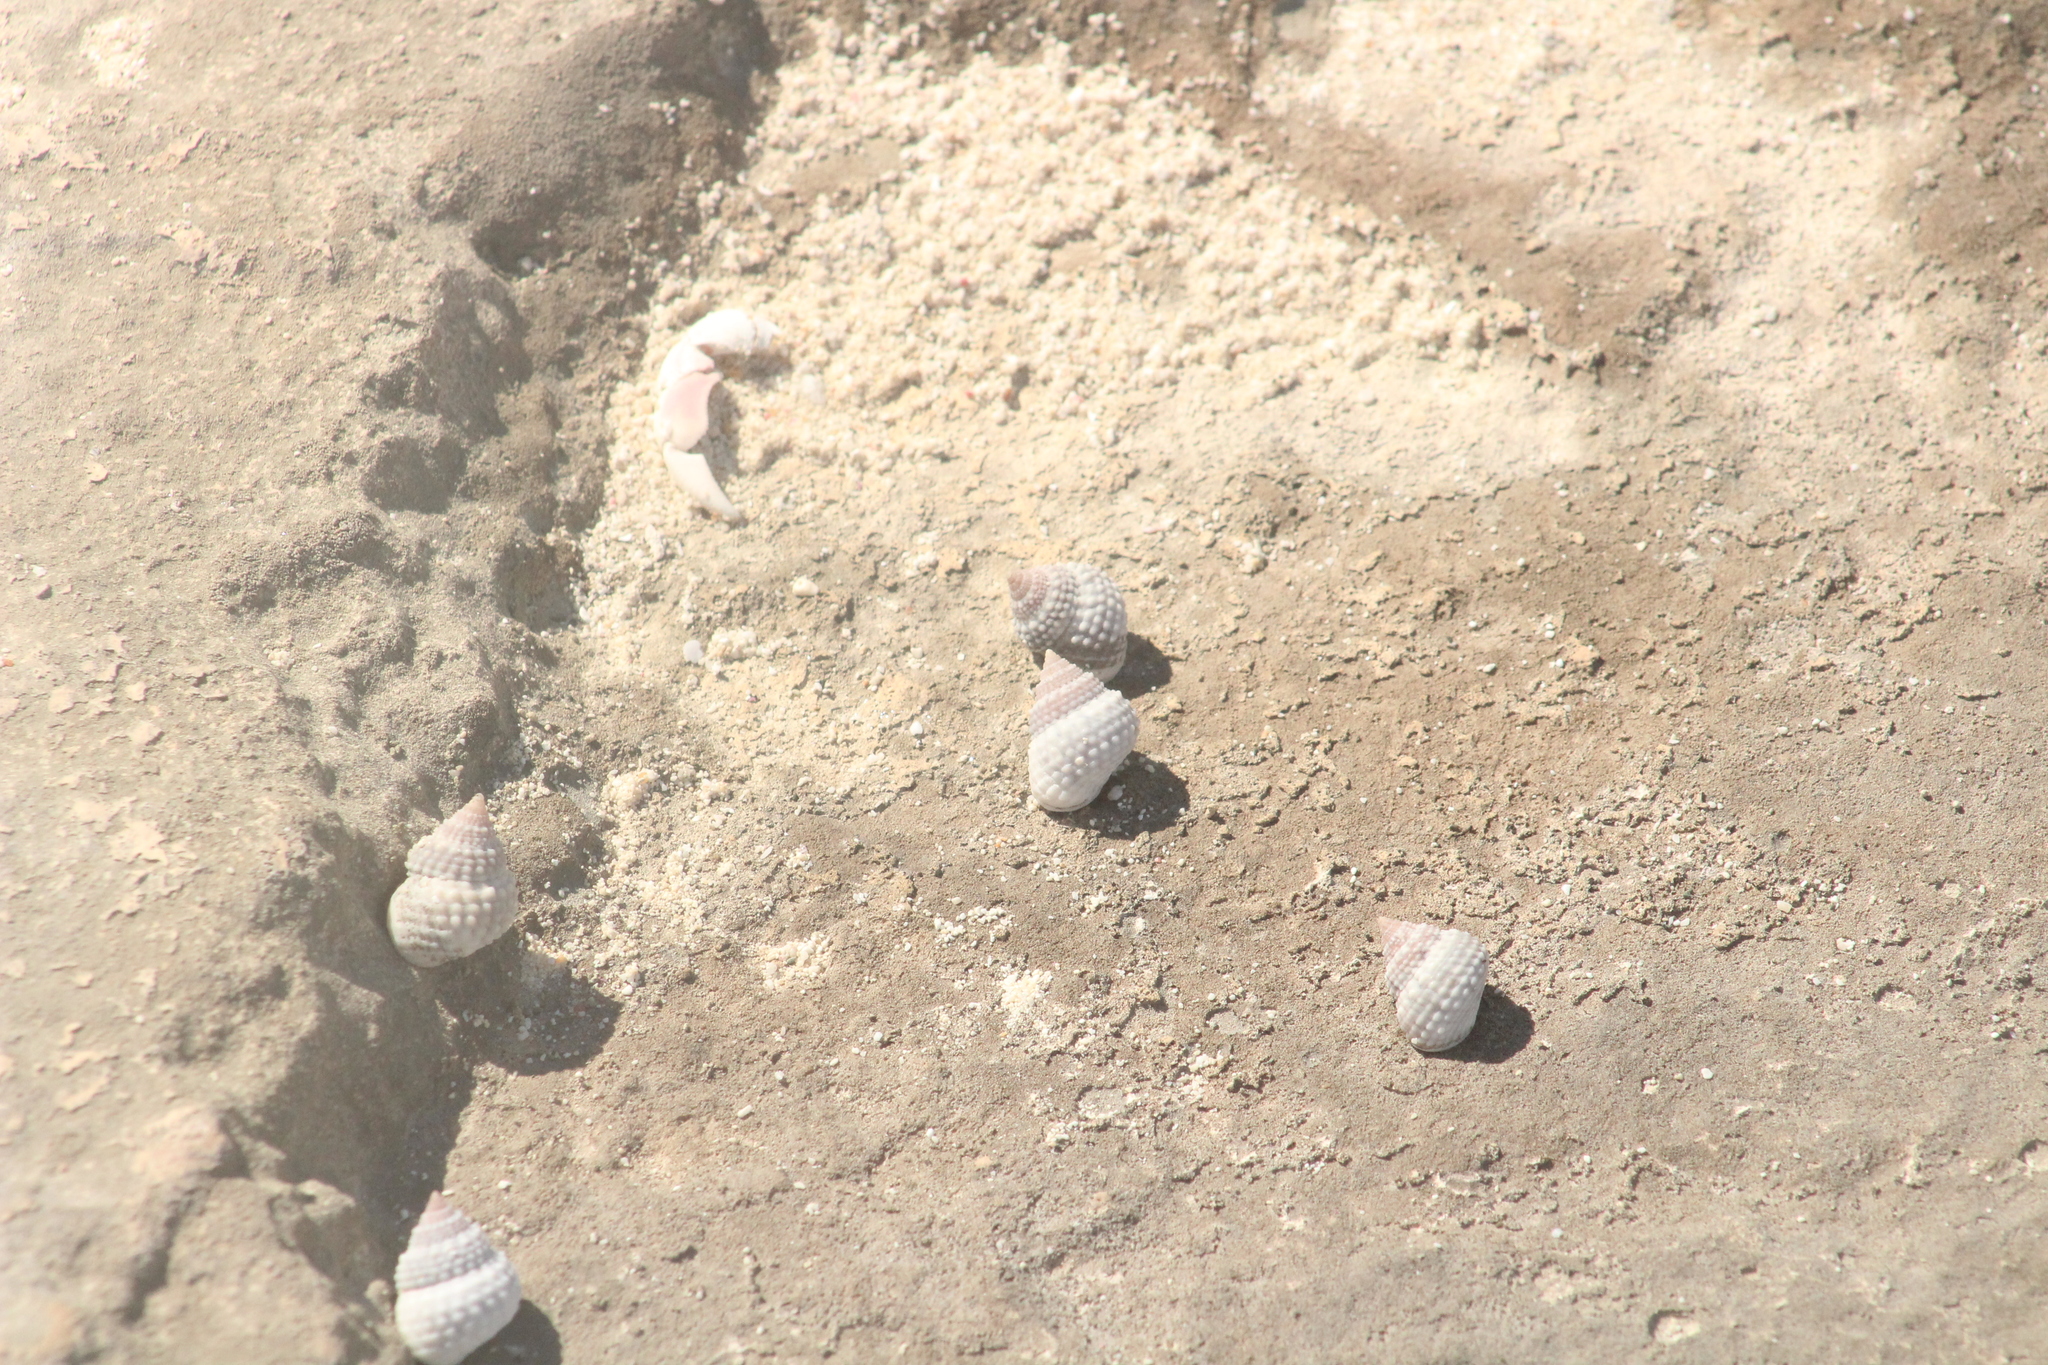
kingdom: Animalia
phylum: Mollusca
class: Gastropoda
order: Littorinimorpha
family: Littorinidae
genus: Cenchritis
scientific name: Cenchritis muricatus
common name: Beaded periwinkle
